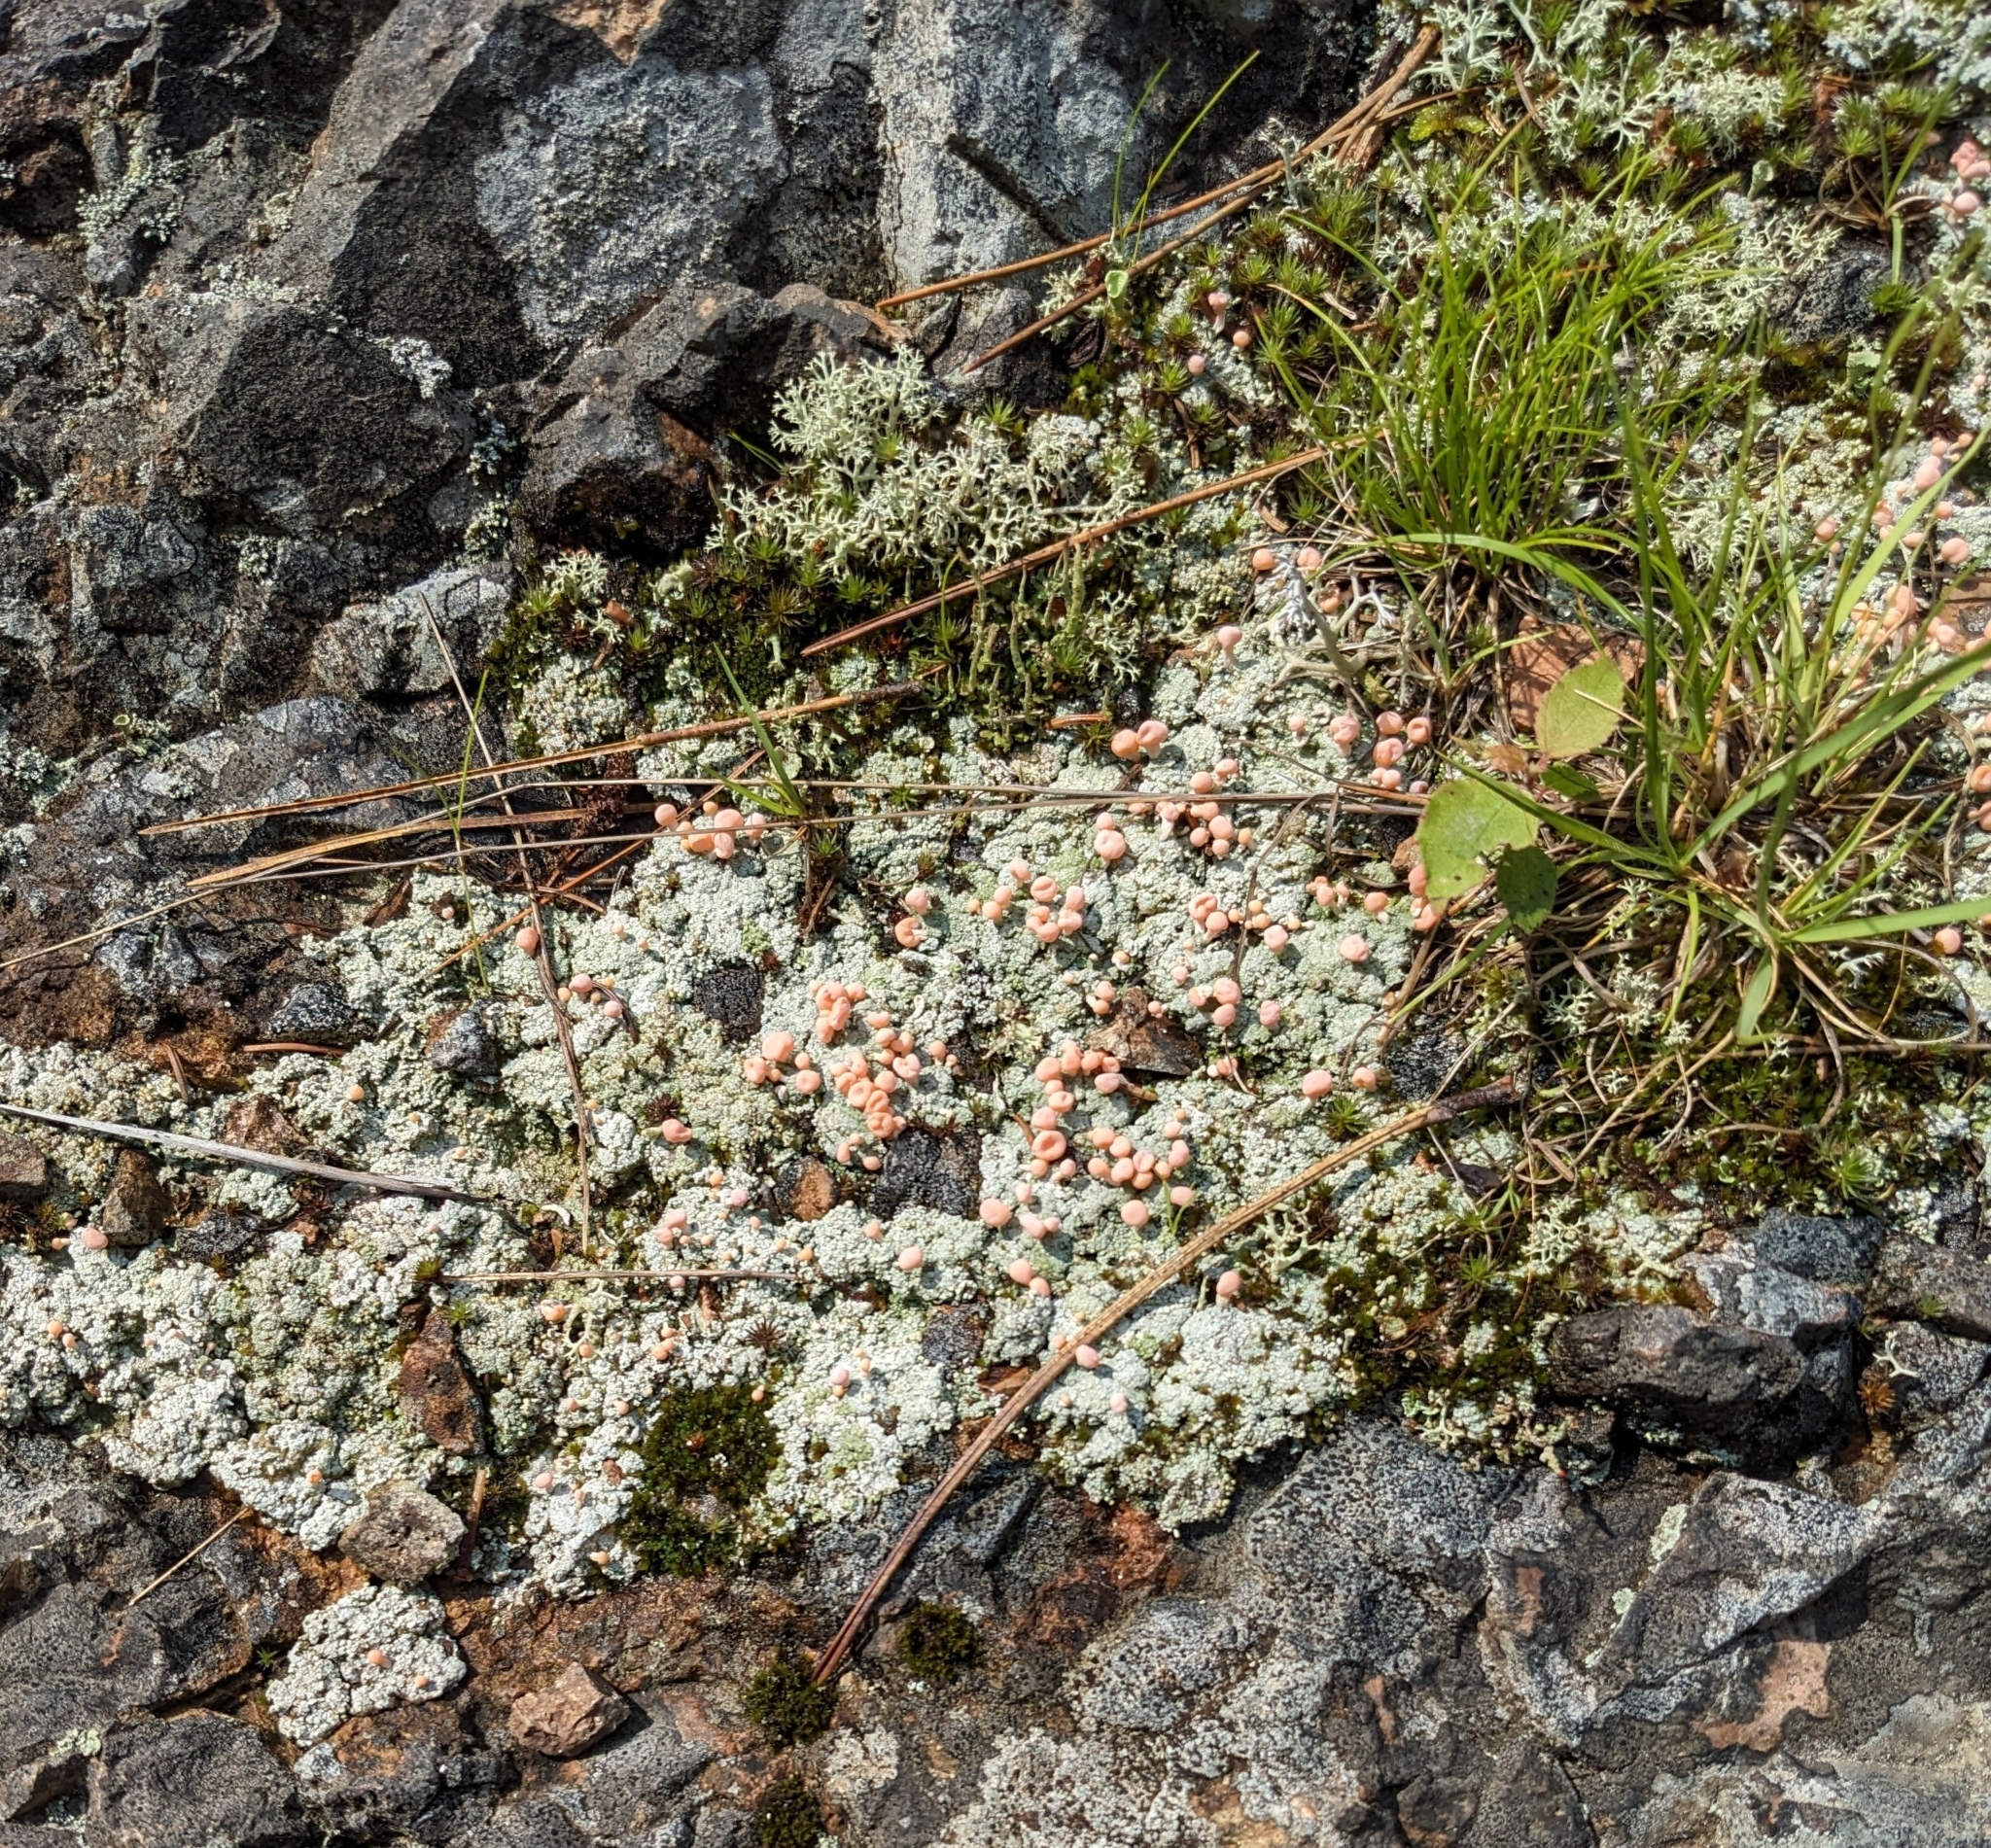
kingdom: Fungi
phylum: Ascomycota
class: Lecanoromycetes
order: Pertusariales
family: Icmadophilaceae
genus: Dibaeis
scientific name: Dibaeis baeomyces
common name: Pink earth lichen
